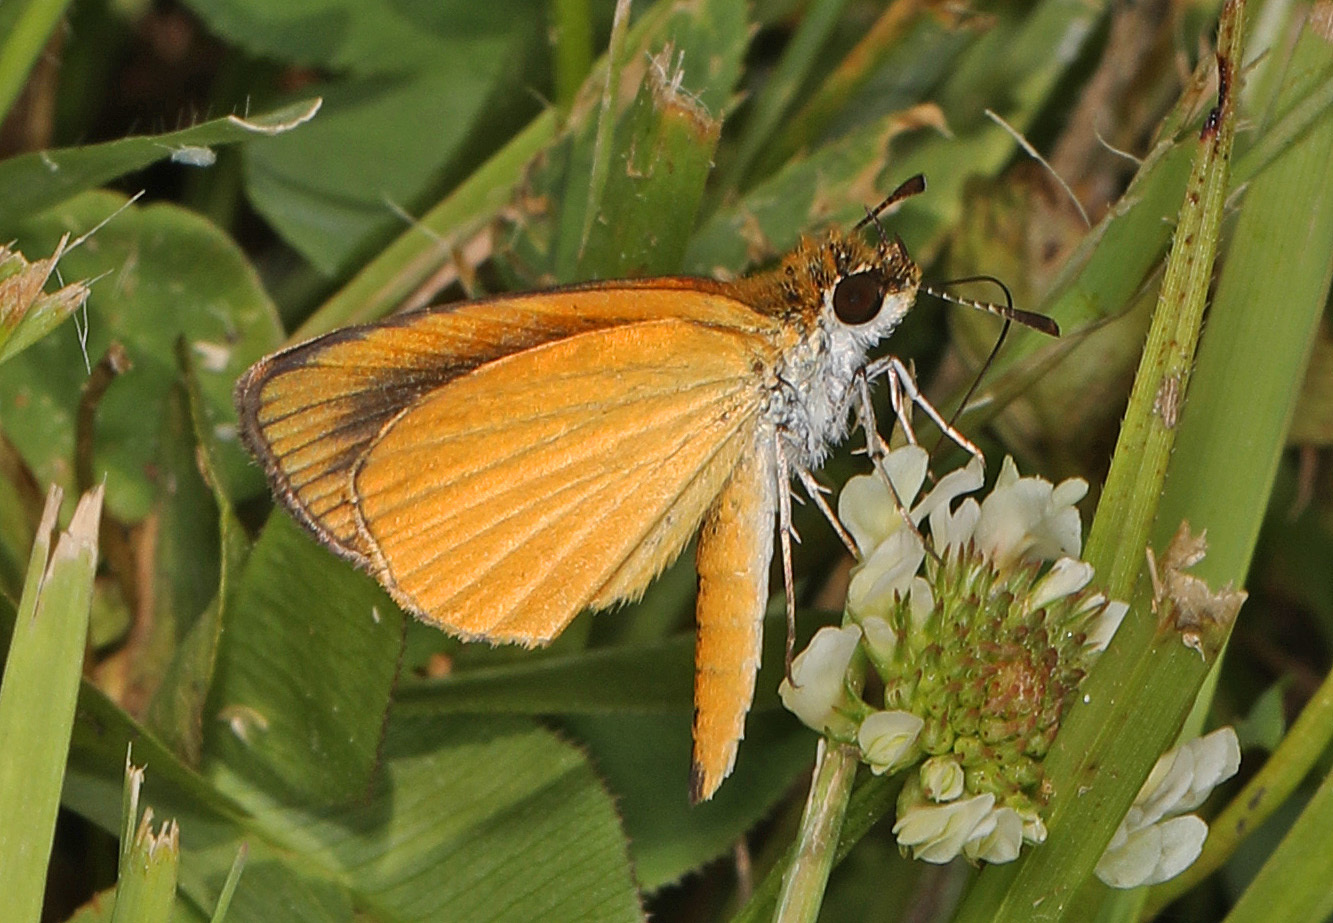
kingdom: Animalia
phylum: Arthropoda
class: Insecta
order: Lepidoptera
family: Hesperiidae
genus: Ancyloxypha
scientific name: Ancyloxypha numitor
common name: Least skipper
